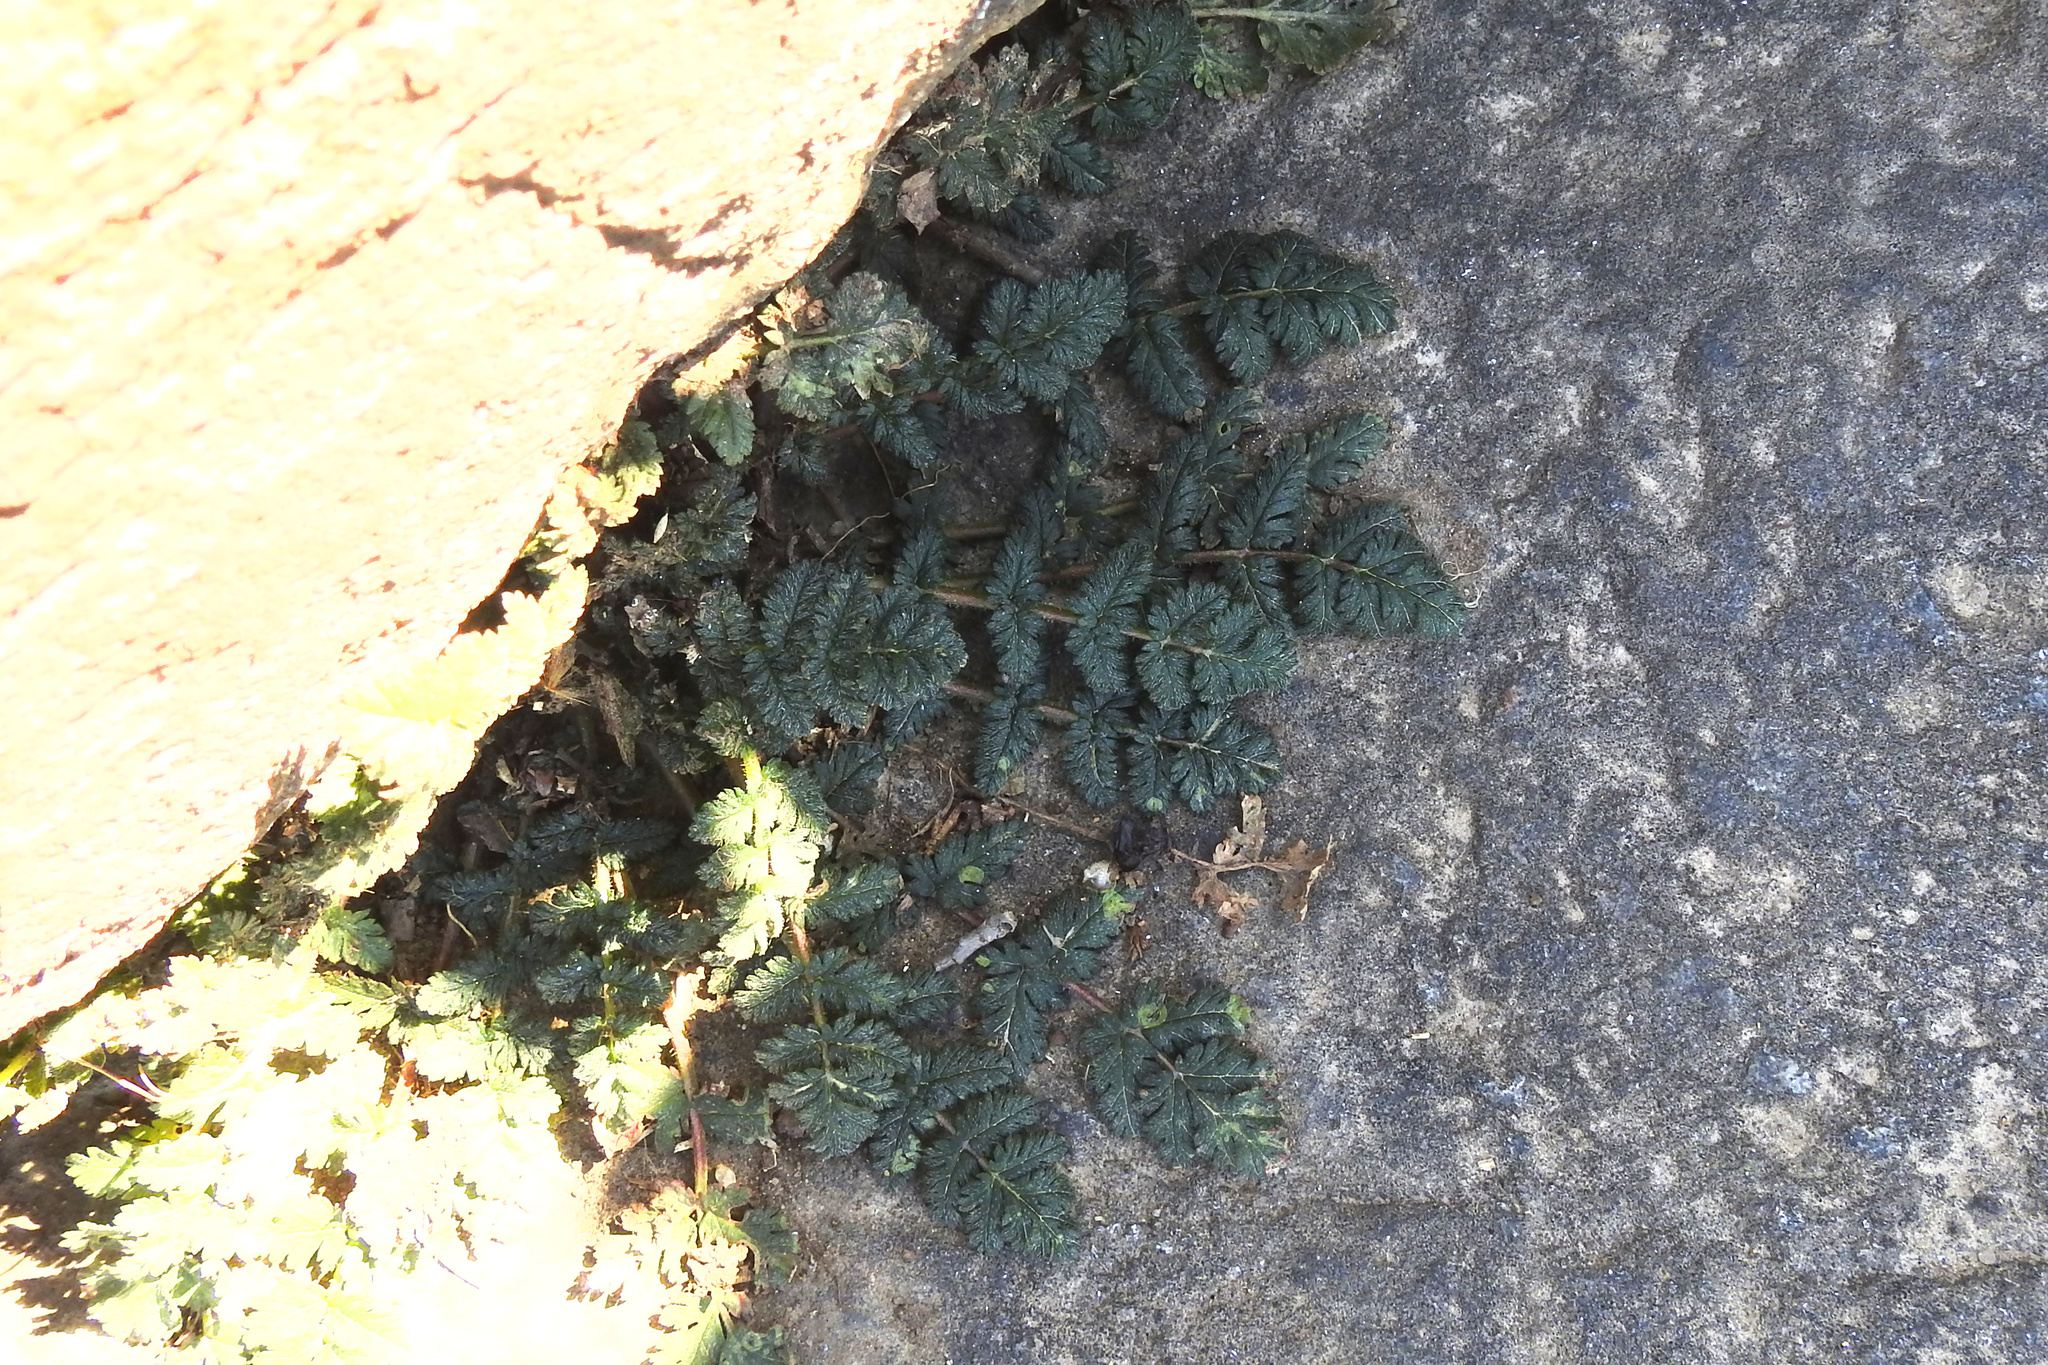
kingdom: Plantae
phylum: Tracheophyta
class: Magnoliopsida
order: Geraniales
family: Geraniaceae
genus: Erodium
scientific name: Erodium
